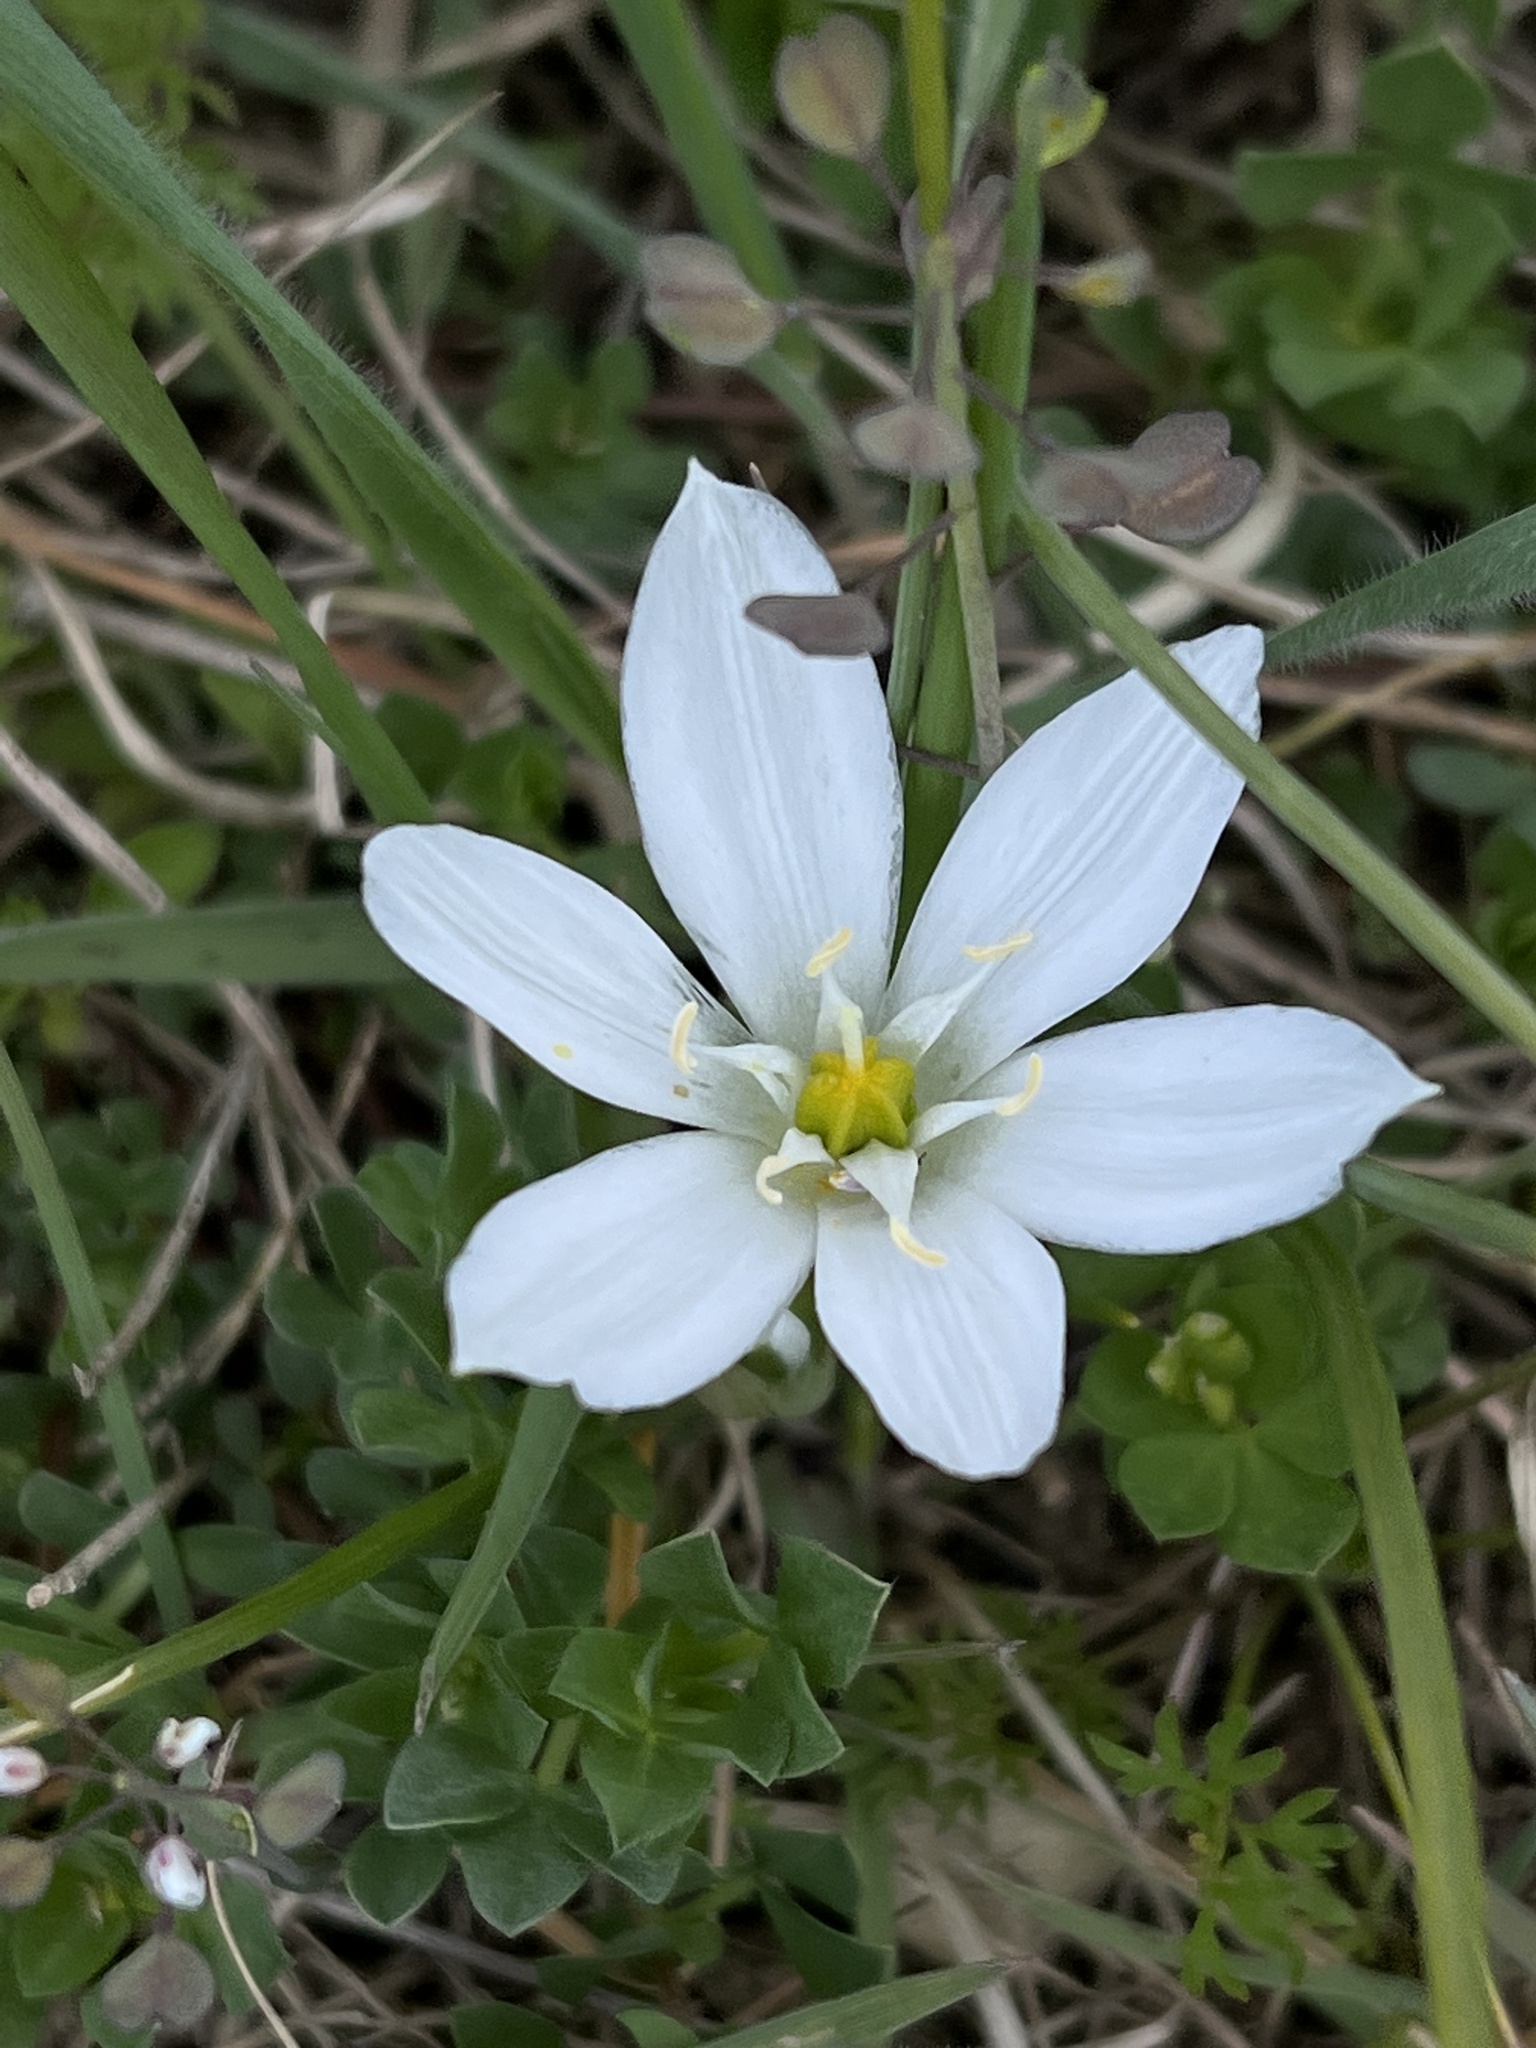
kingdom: Plantae
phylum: Tracheophyta
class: Liliopsida
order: Asparagales
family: Asparagaceae
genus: Ornithogalum
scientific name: Ornithogalum umbellatum
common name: Garden star-of-bethlehem
